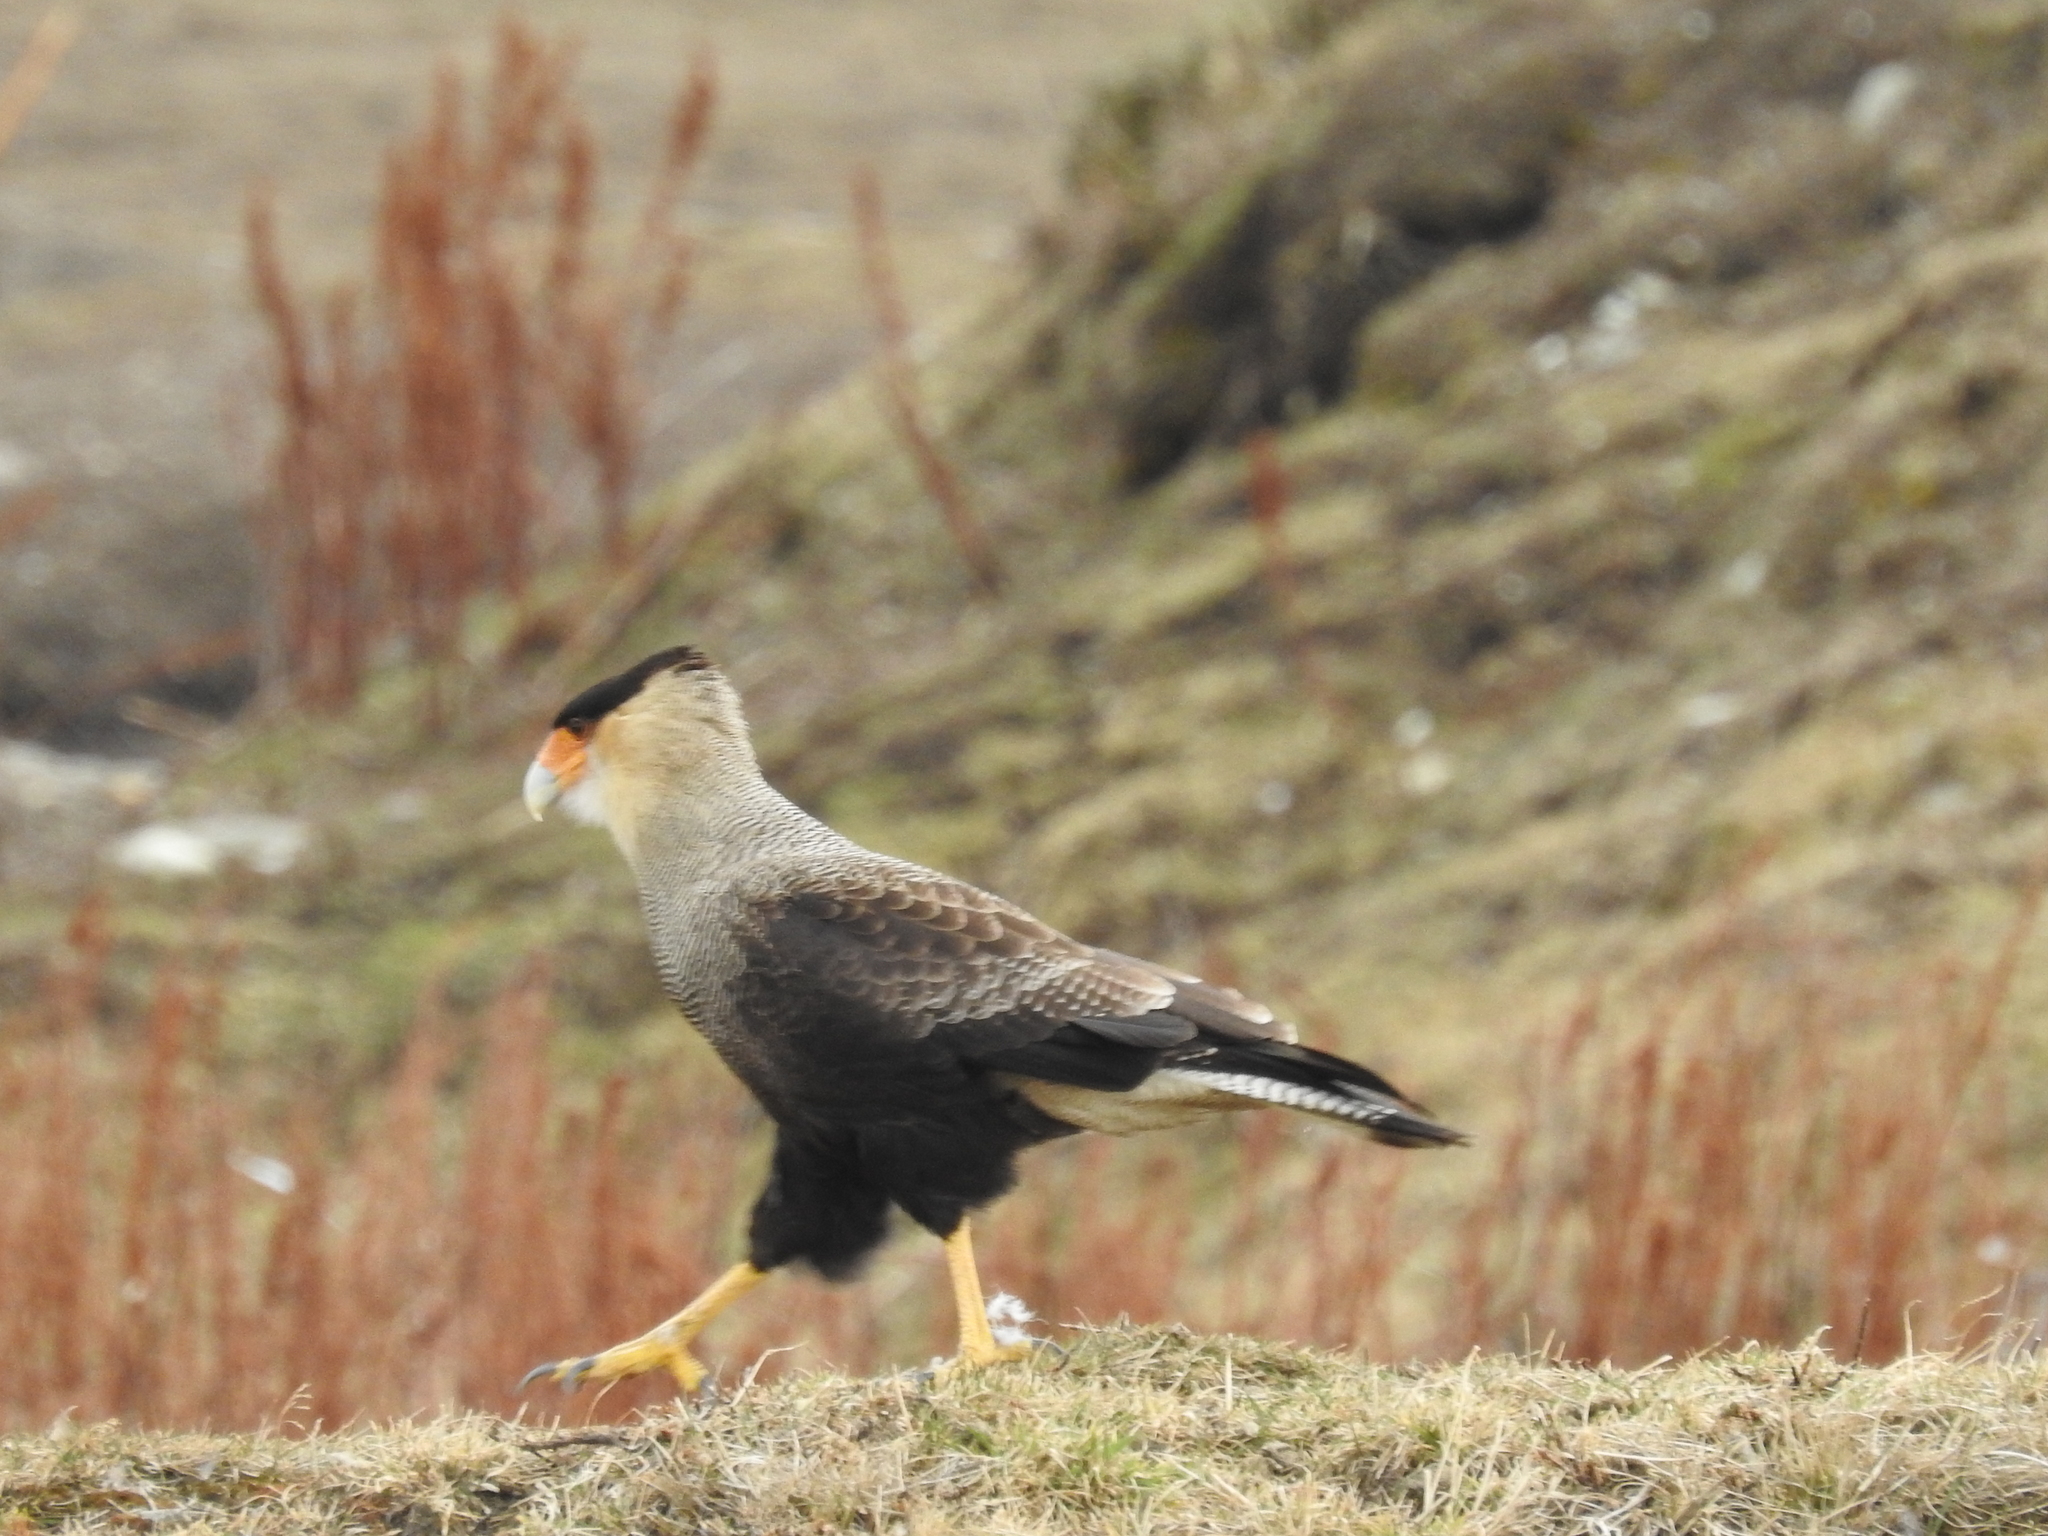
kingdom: Animalia
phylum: Chordata
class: Aves
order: Falconiformes
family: Falconidae
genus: Caracara
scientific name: Caracara plancus
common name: Southern caracara
